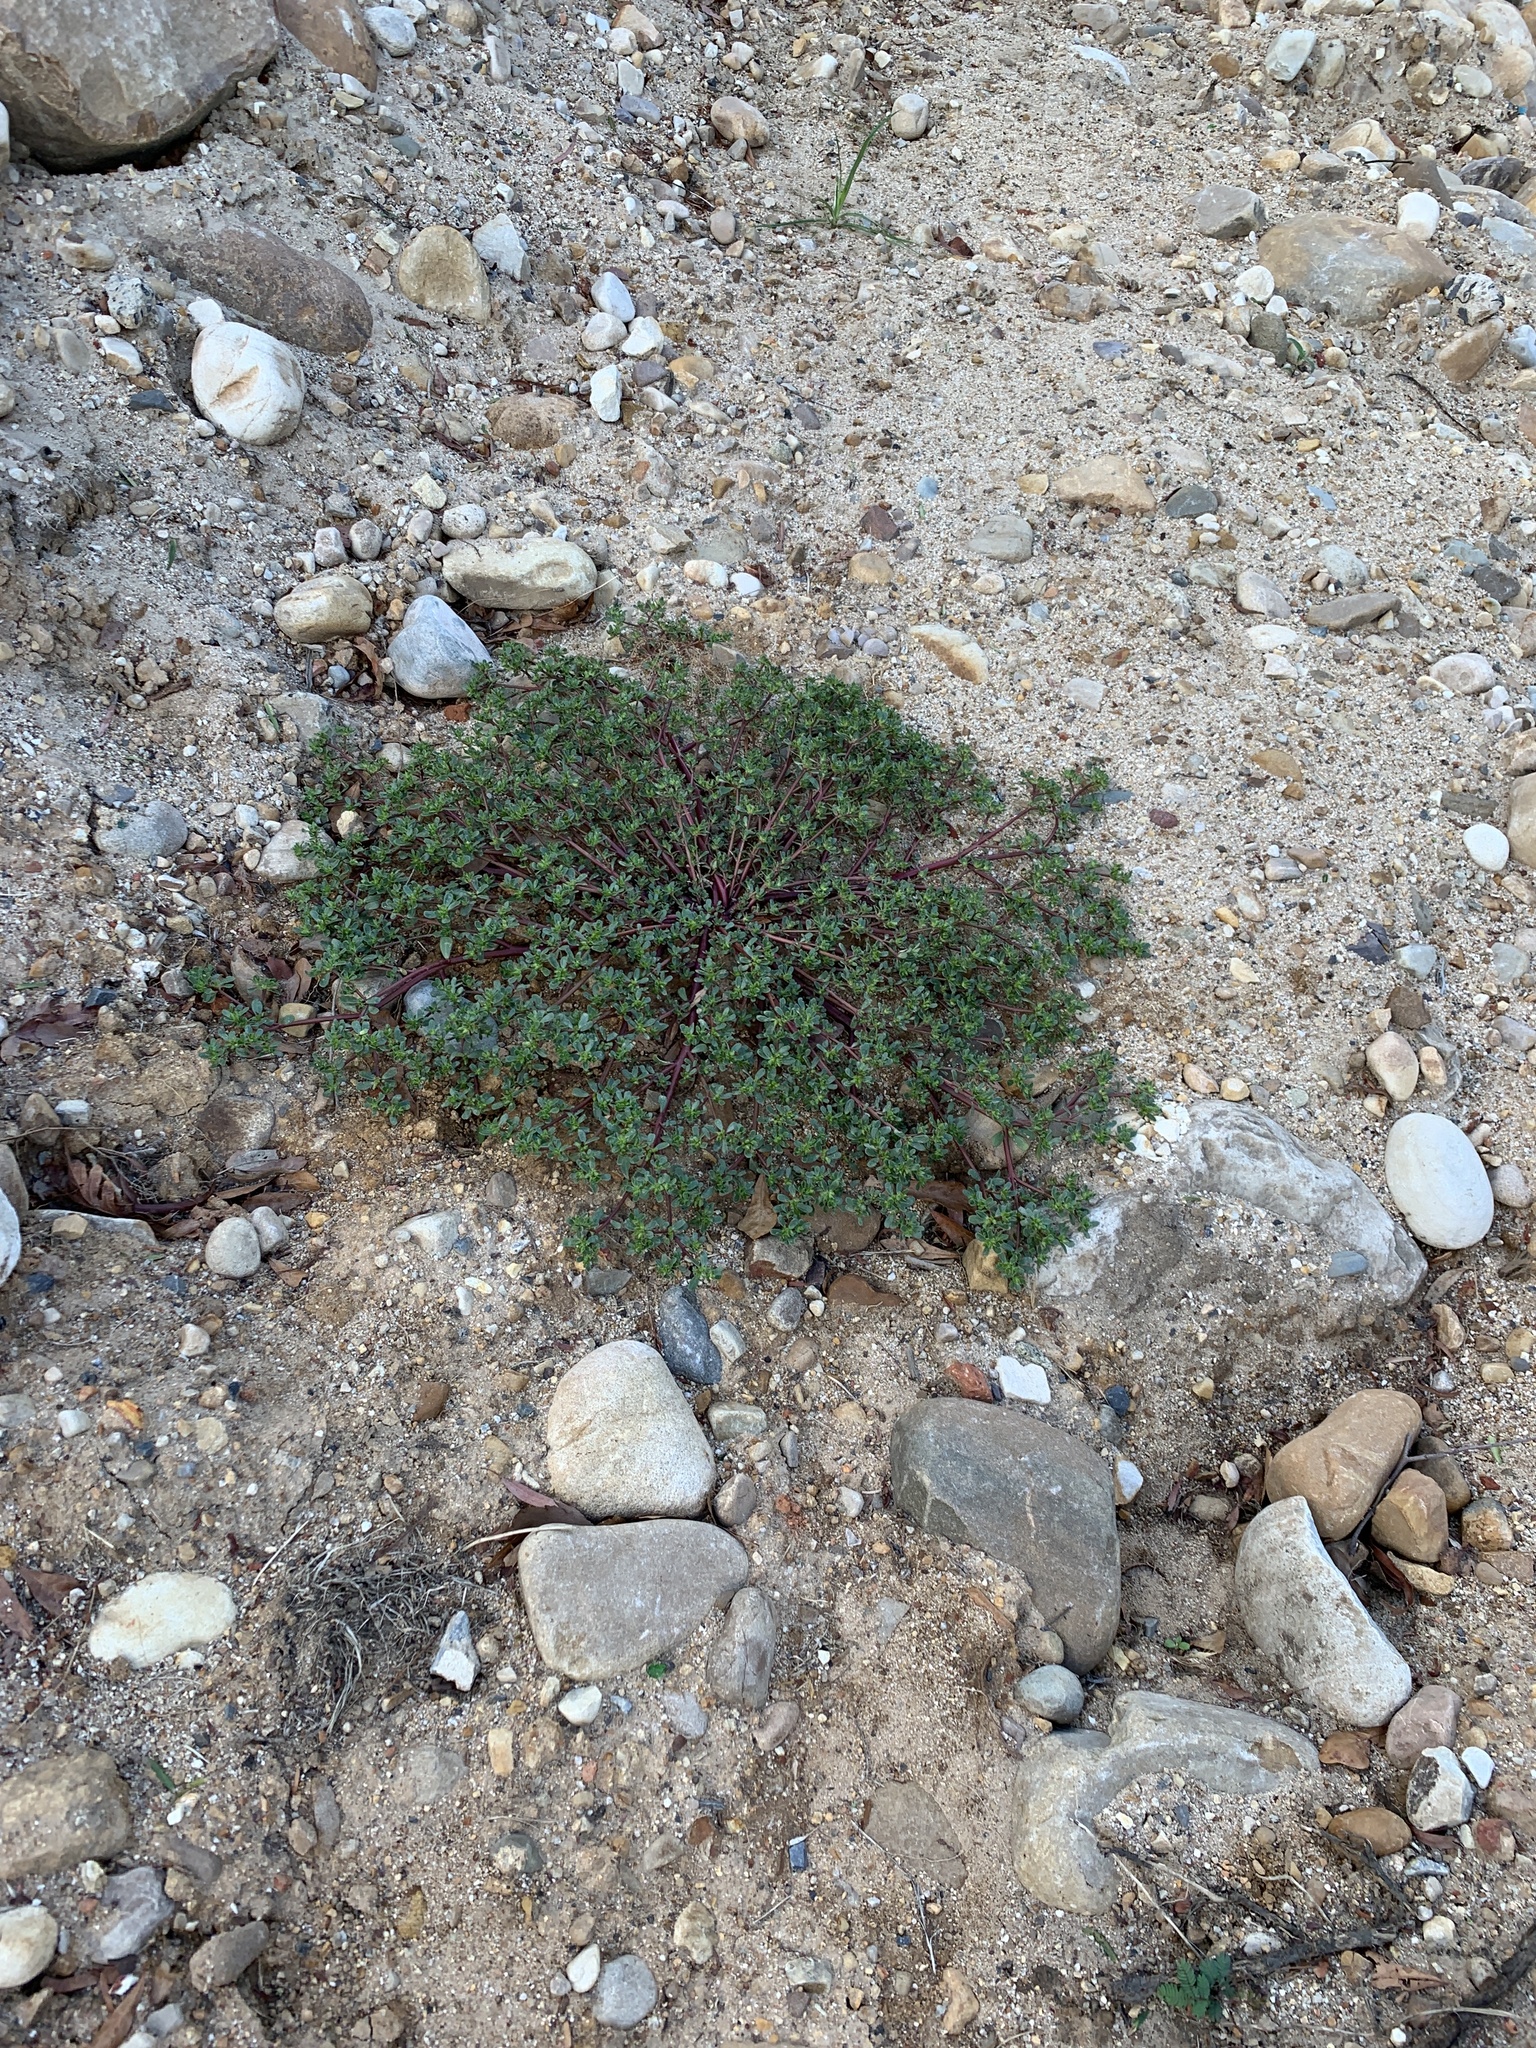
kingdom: Plantae
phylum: Tracheophyta
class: Magnoliopsida
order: Caryophyllales
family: Portulacaceae
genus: Portulaca
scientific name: Portulaca oleracea
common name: Common purslane
